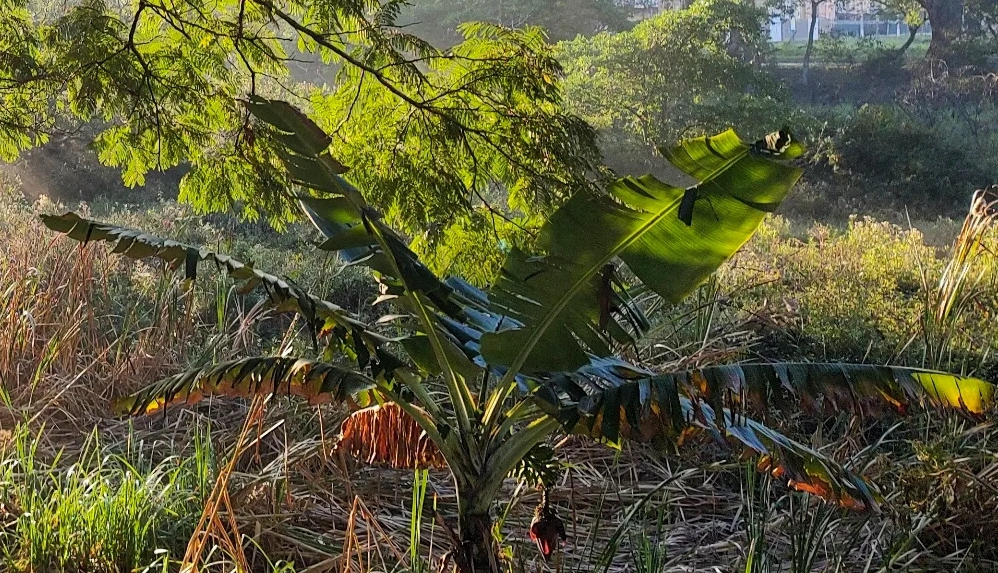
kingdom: Plantae
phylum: Tracheophyta
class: Liliopsida
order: Zingiberales
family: Musaceae
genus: Musa
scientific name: Musa acuminata
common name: Edible banana
